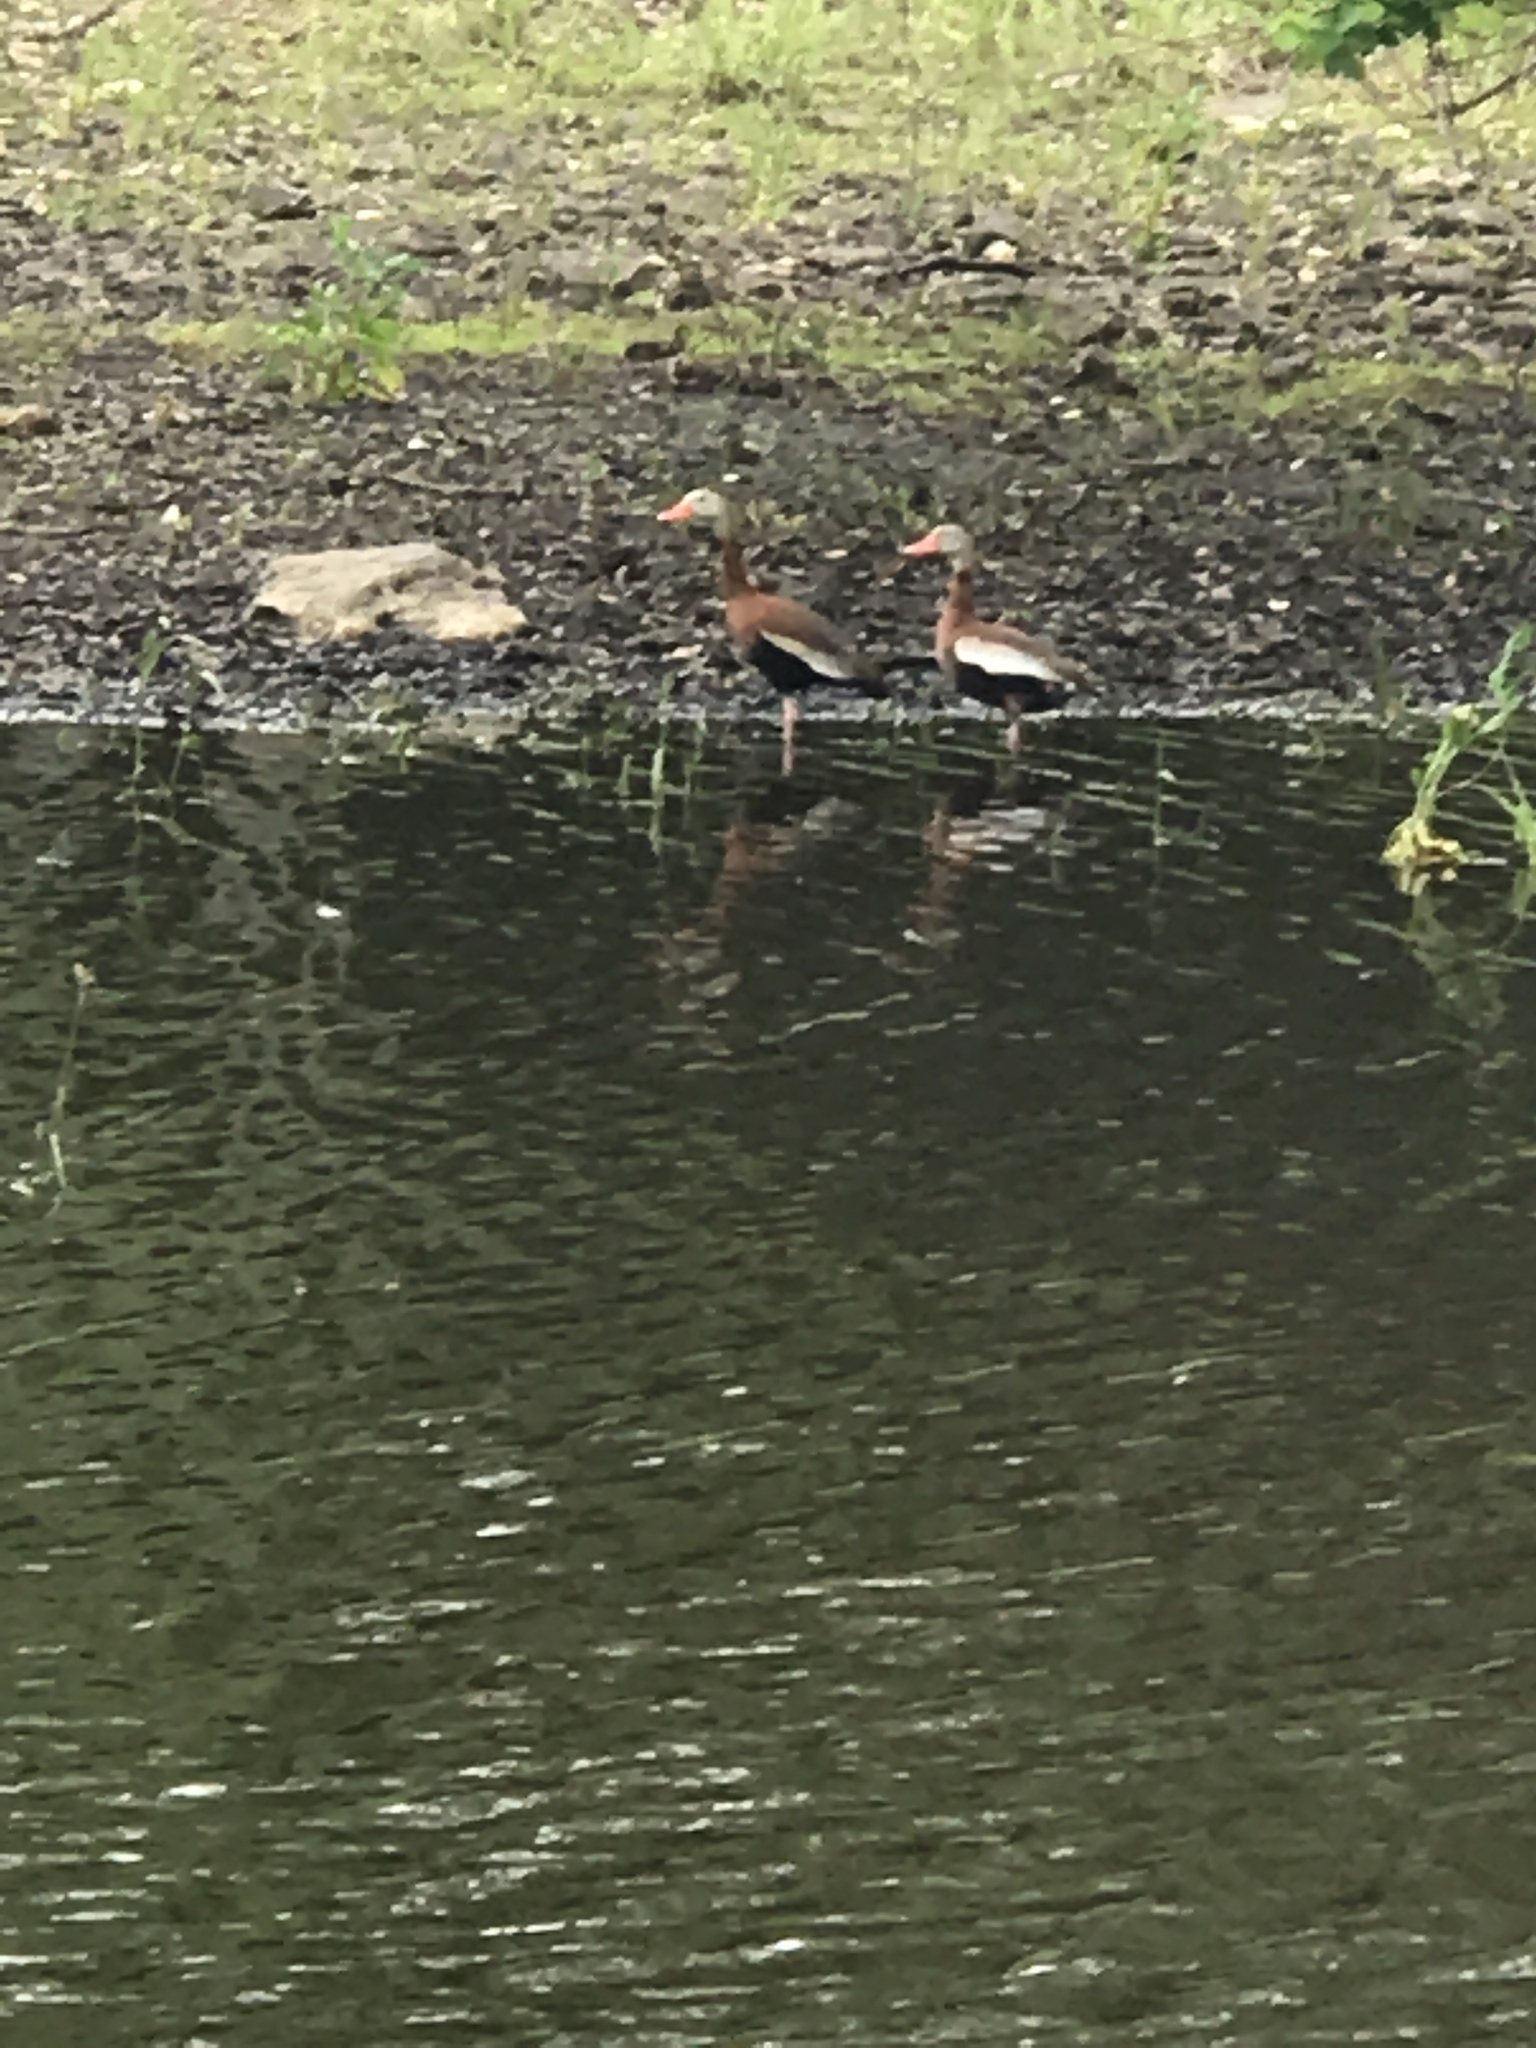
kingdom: Animalia
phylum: Chordata
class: Aves
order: Anseriformes
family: Anatidae
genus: Dendrocygna
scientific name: Dendrocygna autumnalis
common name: Black-bellied whistling duck
